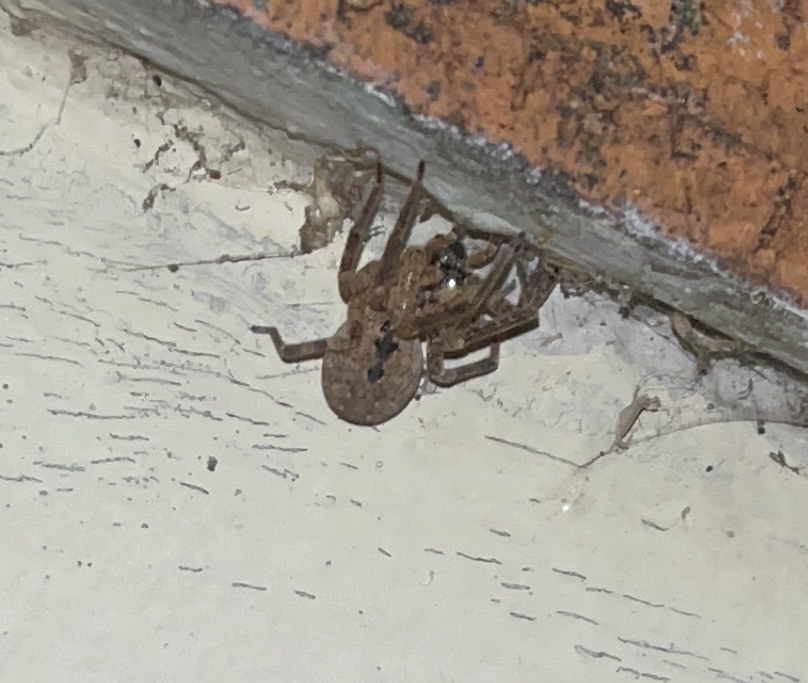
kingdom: Animalia
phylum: Arthropoda
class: Arachnida
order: Araneae
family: Zoropsidae
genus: Zoropsis
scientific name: Zoropsis spinimana
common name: Zoropsid spider
